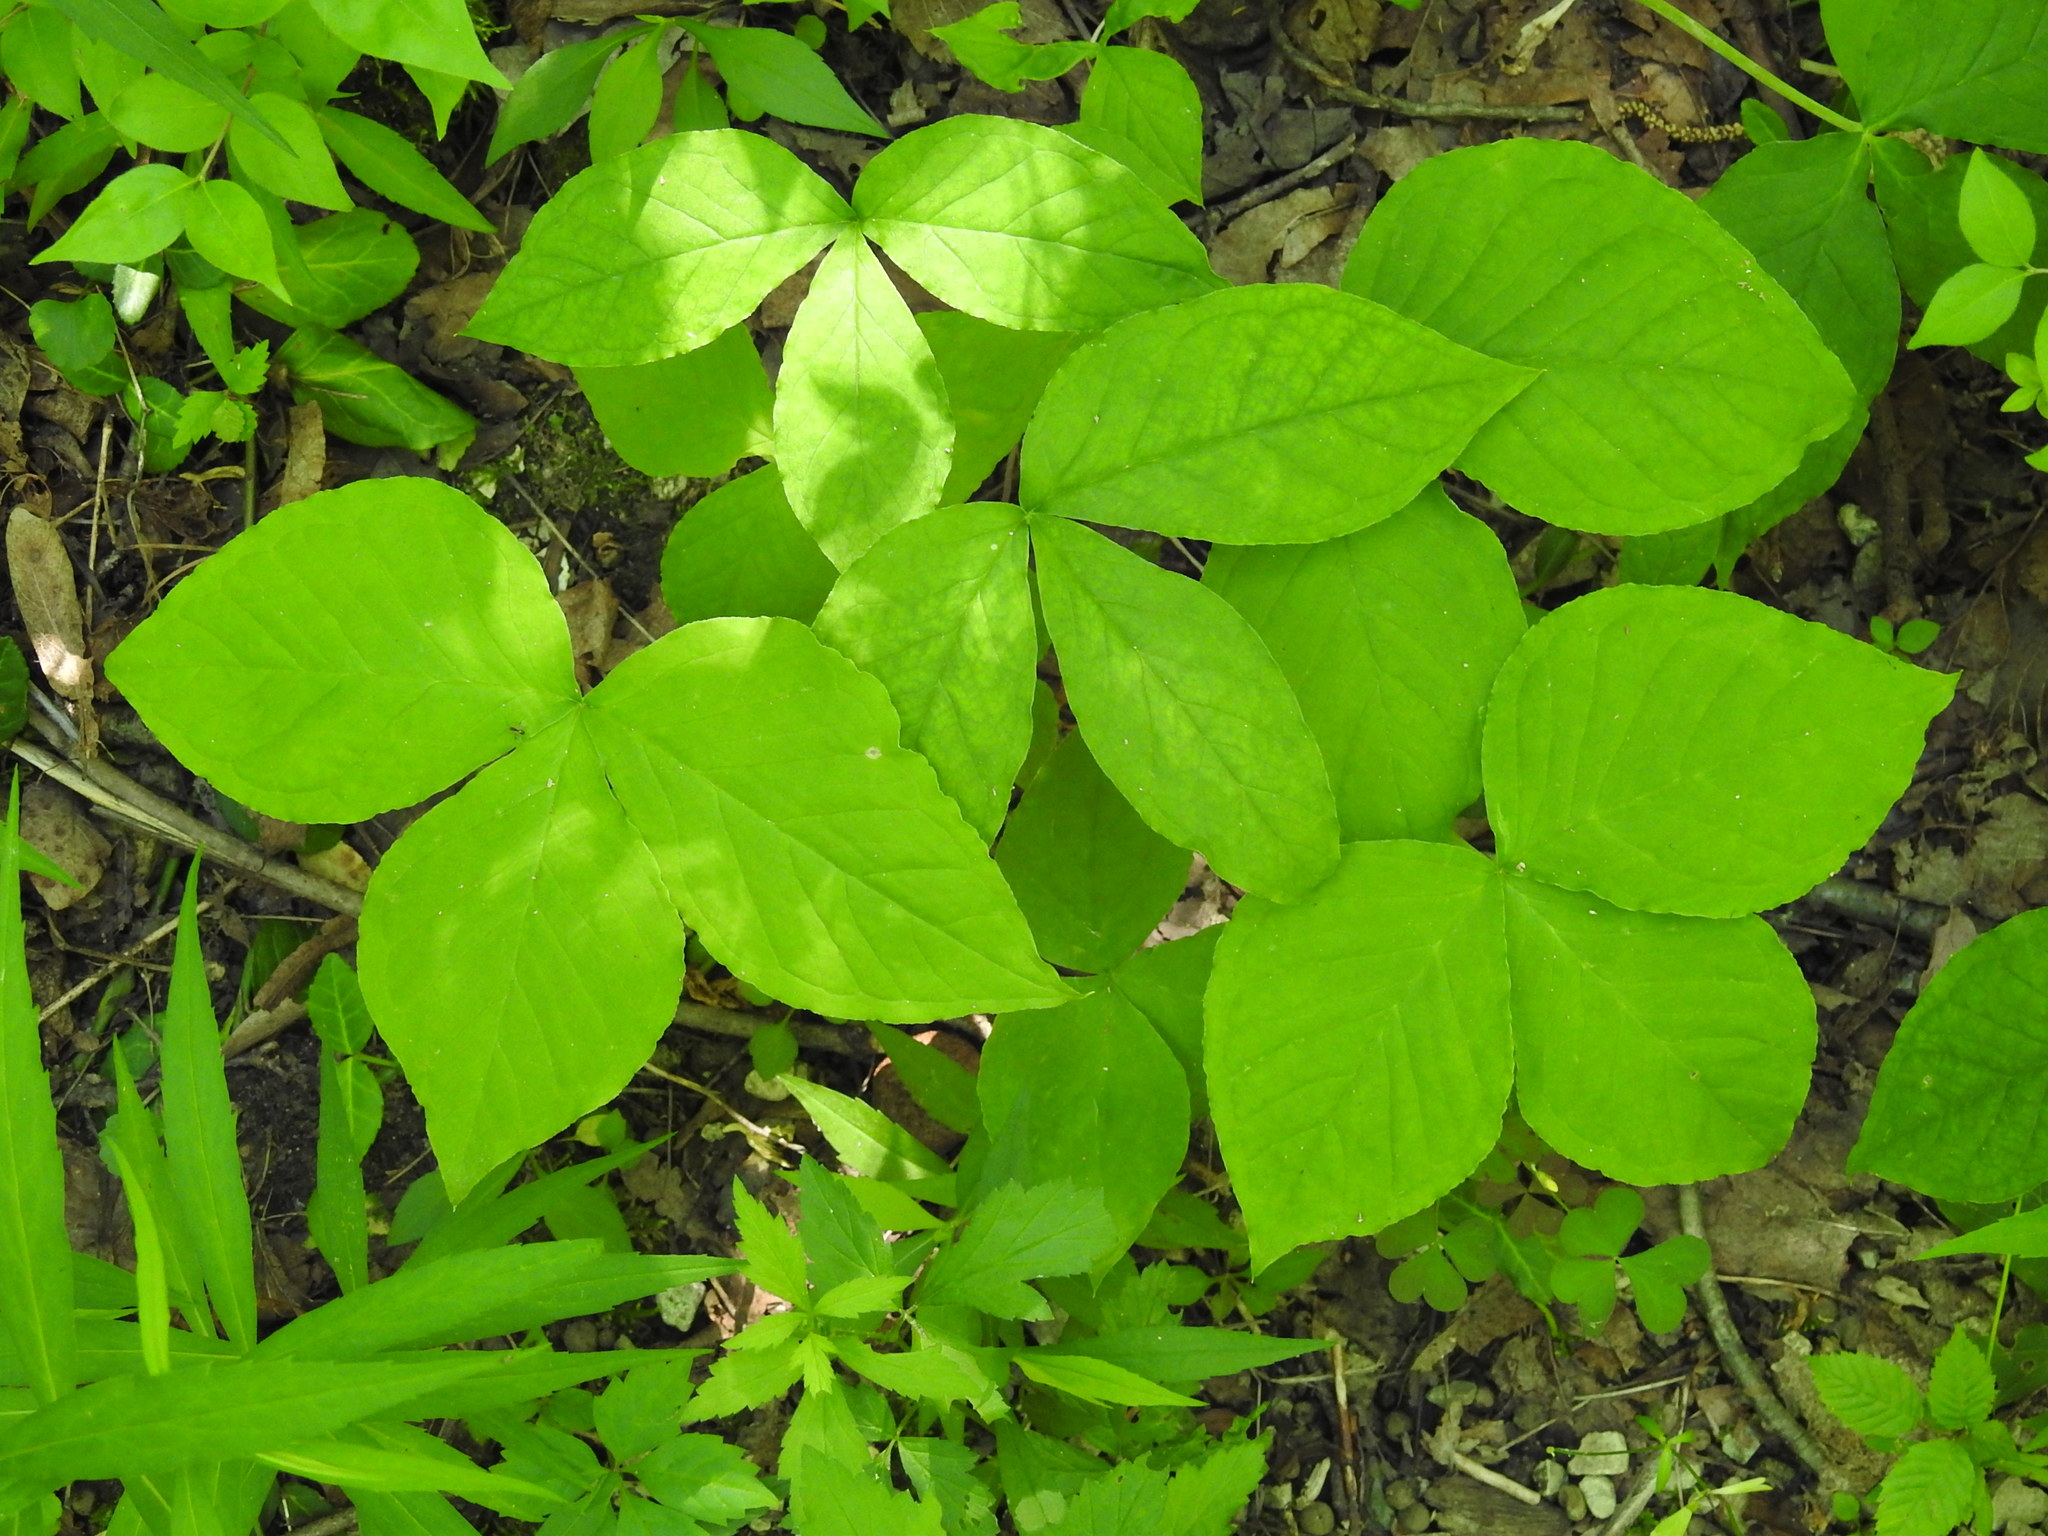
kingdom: Plantae
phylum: Tracheophyta
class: Liliopsida
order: Alismatales
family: Araceae
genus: Arisaema
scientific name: Arisaema triphyllum
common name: Jack-in-the-pulpit
